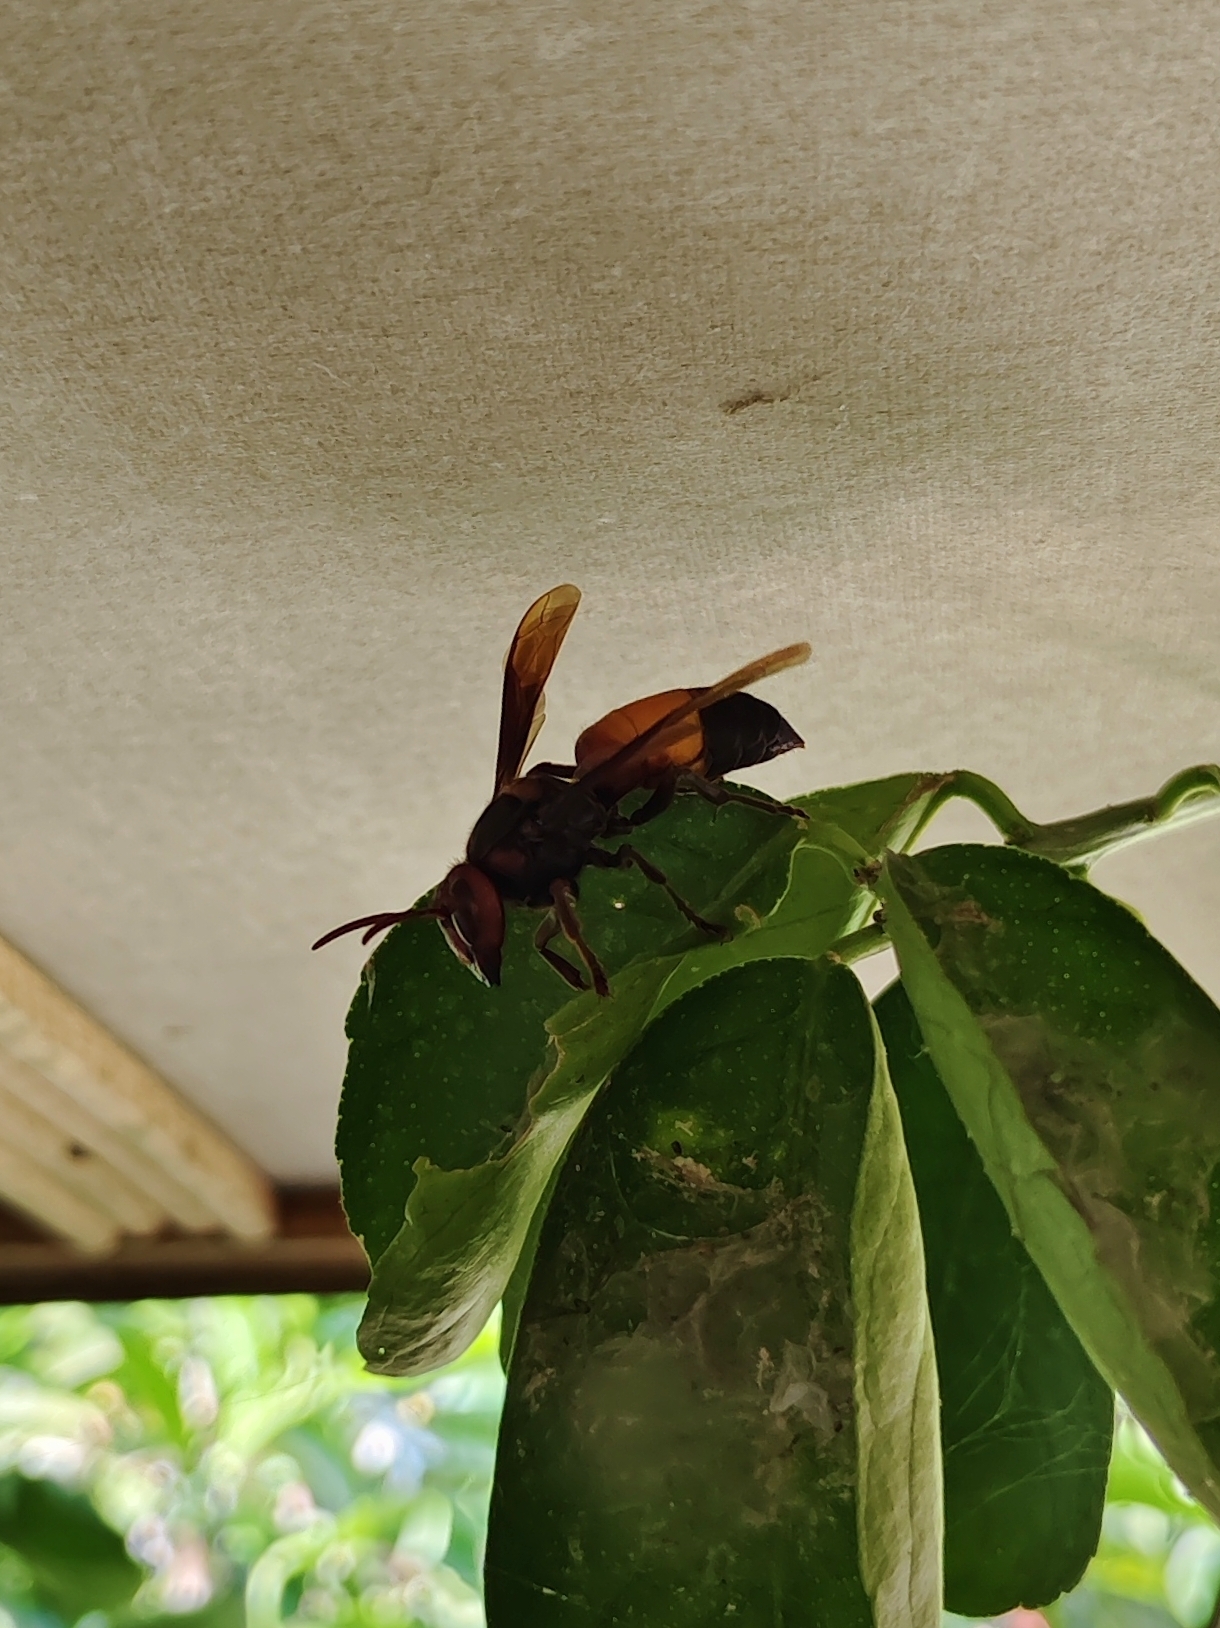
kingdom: Animalia
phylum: Arthropoda
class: Insecta
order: Hymenoptera
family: Vespidae
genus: Vespa
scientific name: Vespa affinis
